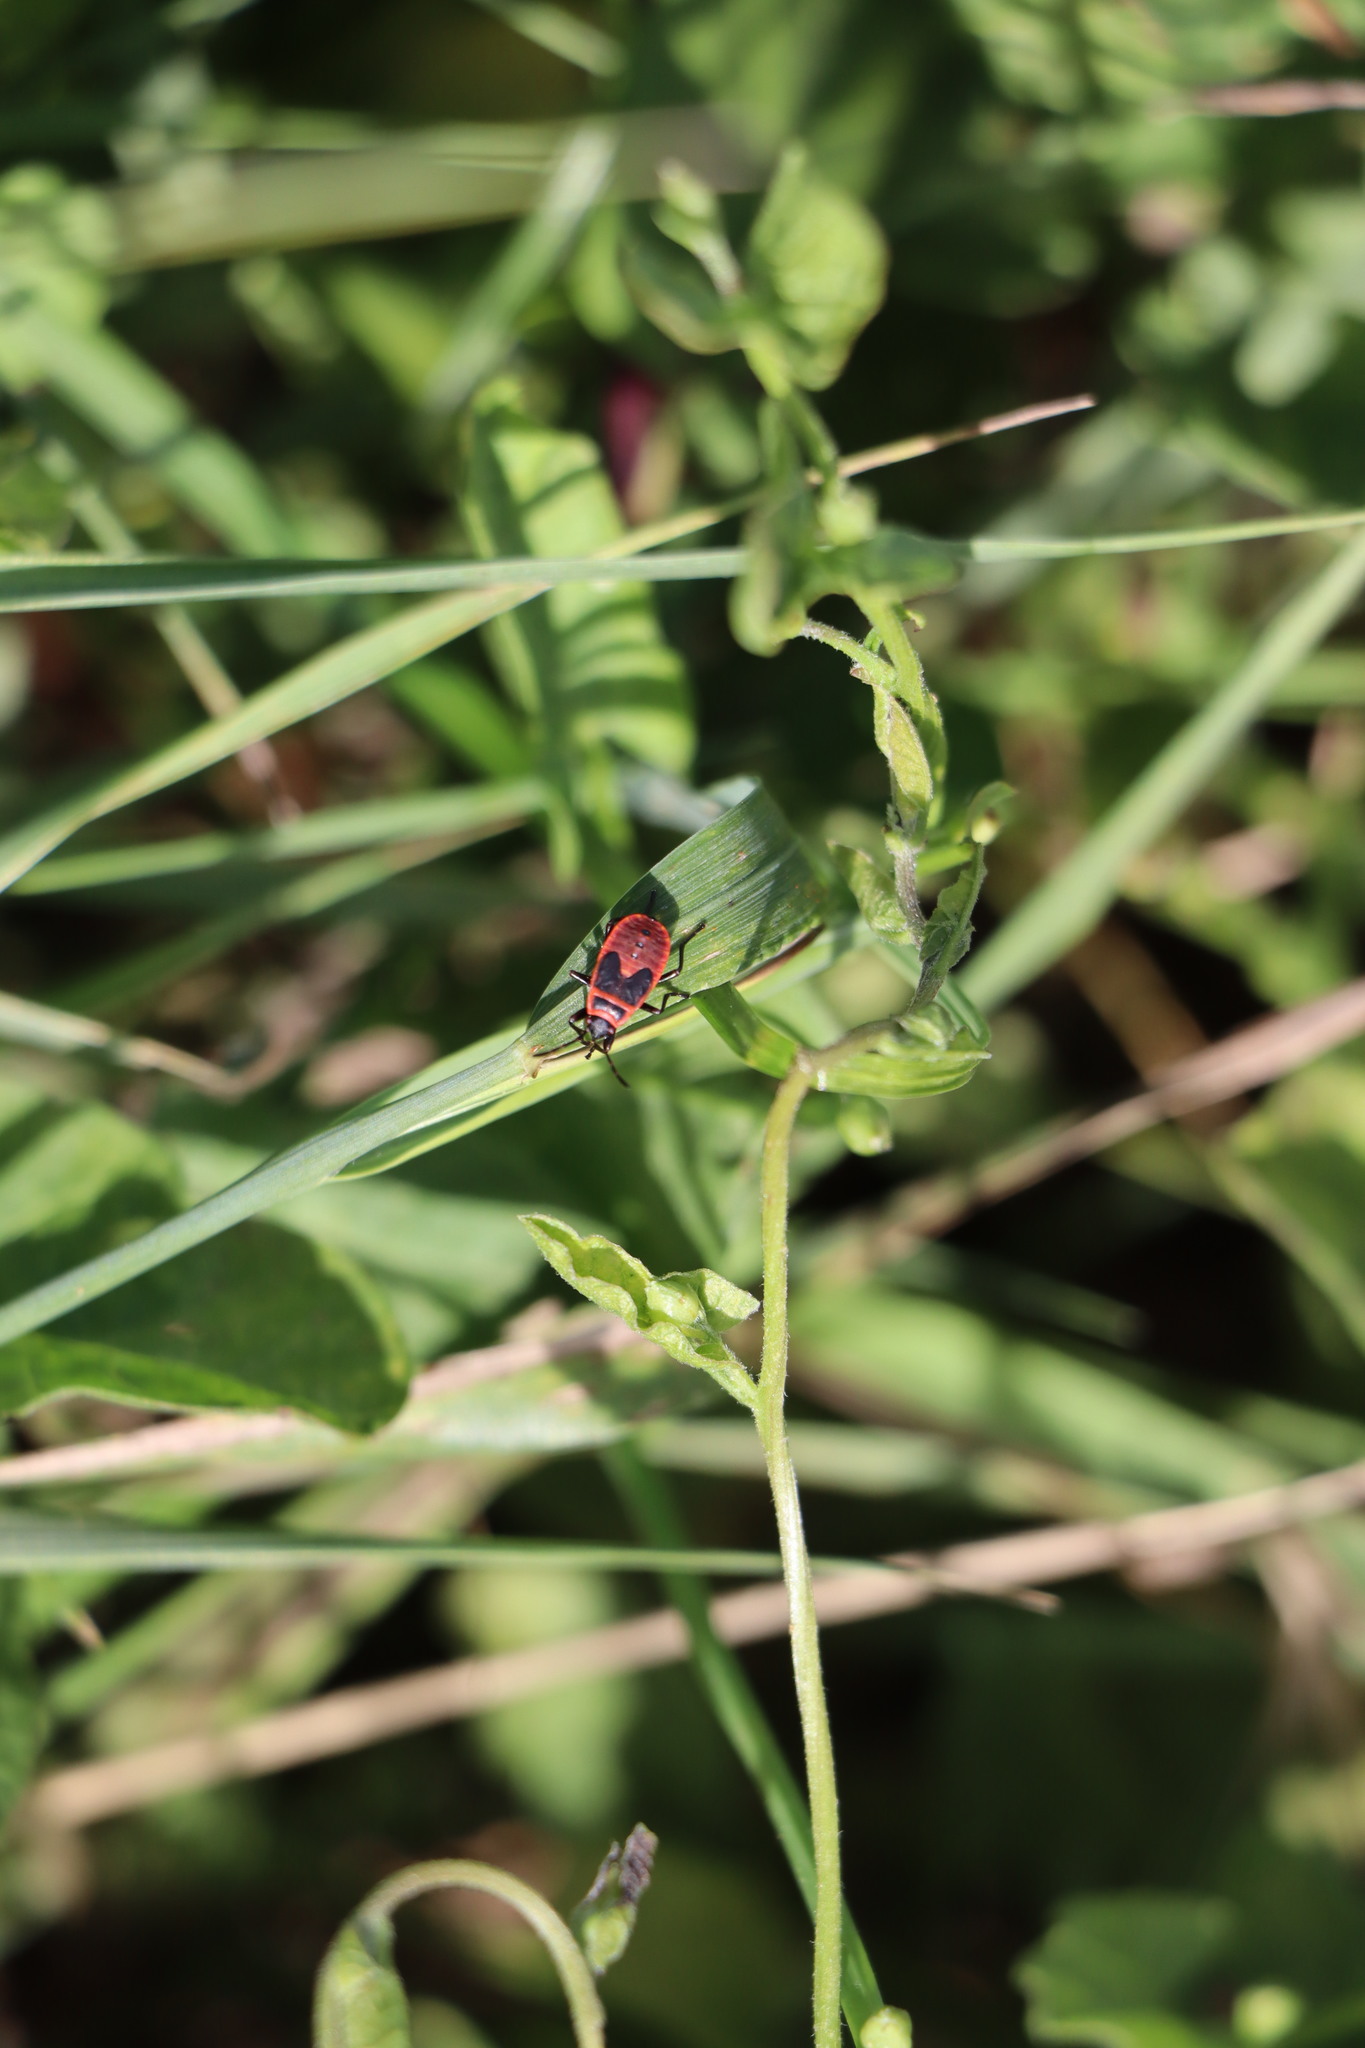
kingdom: Animalia
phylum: Arthropoda
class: Insecta
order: Hemiptera
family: Pyrrhocoridae
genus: Pyrrhocoris
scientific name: Pyrrhocoris apterus
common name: Firebug
